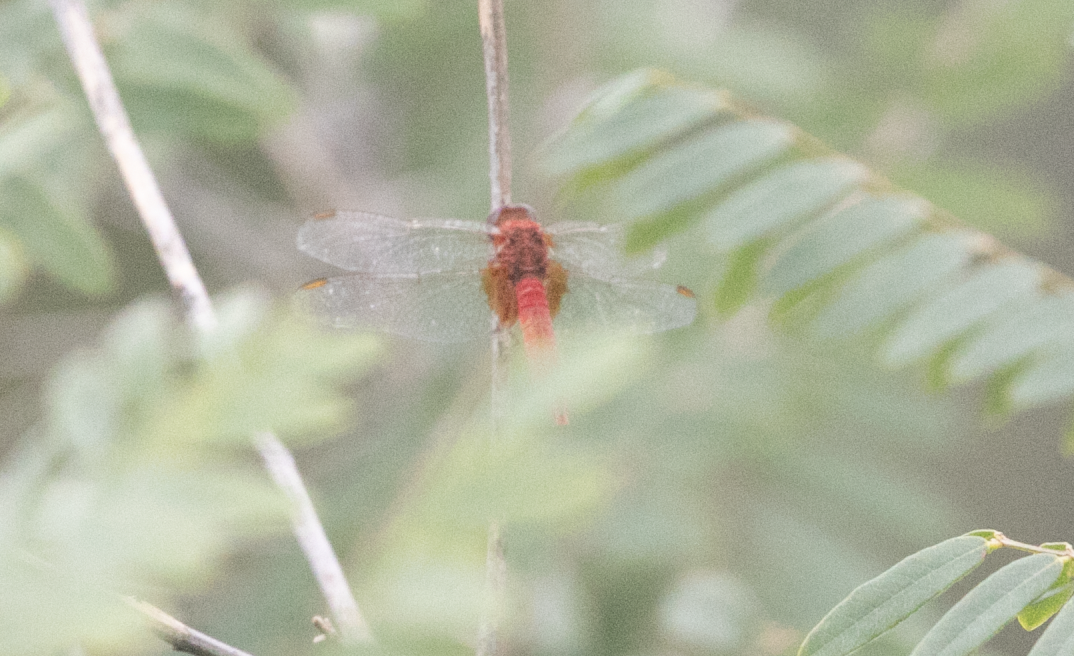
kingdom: Animalia
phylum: Arthropoda
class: Insecta
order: Odonata
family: Libellulidae
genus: Crocothemis
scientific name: Crocothemis erythraea
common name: Scarlet dragonfly
